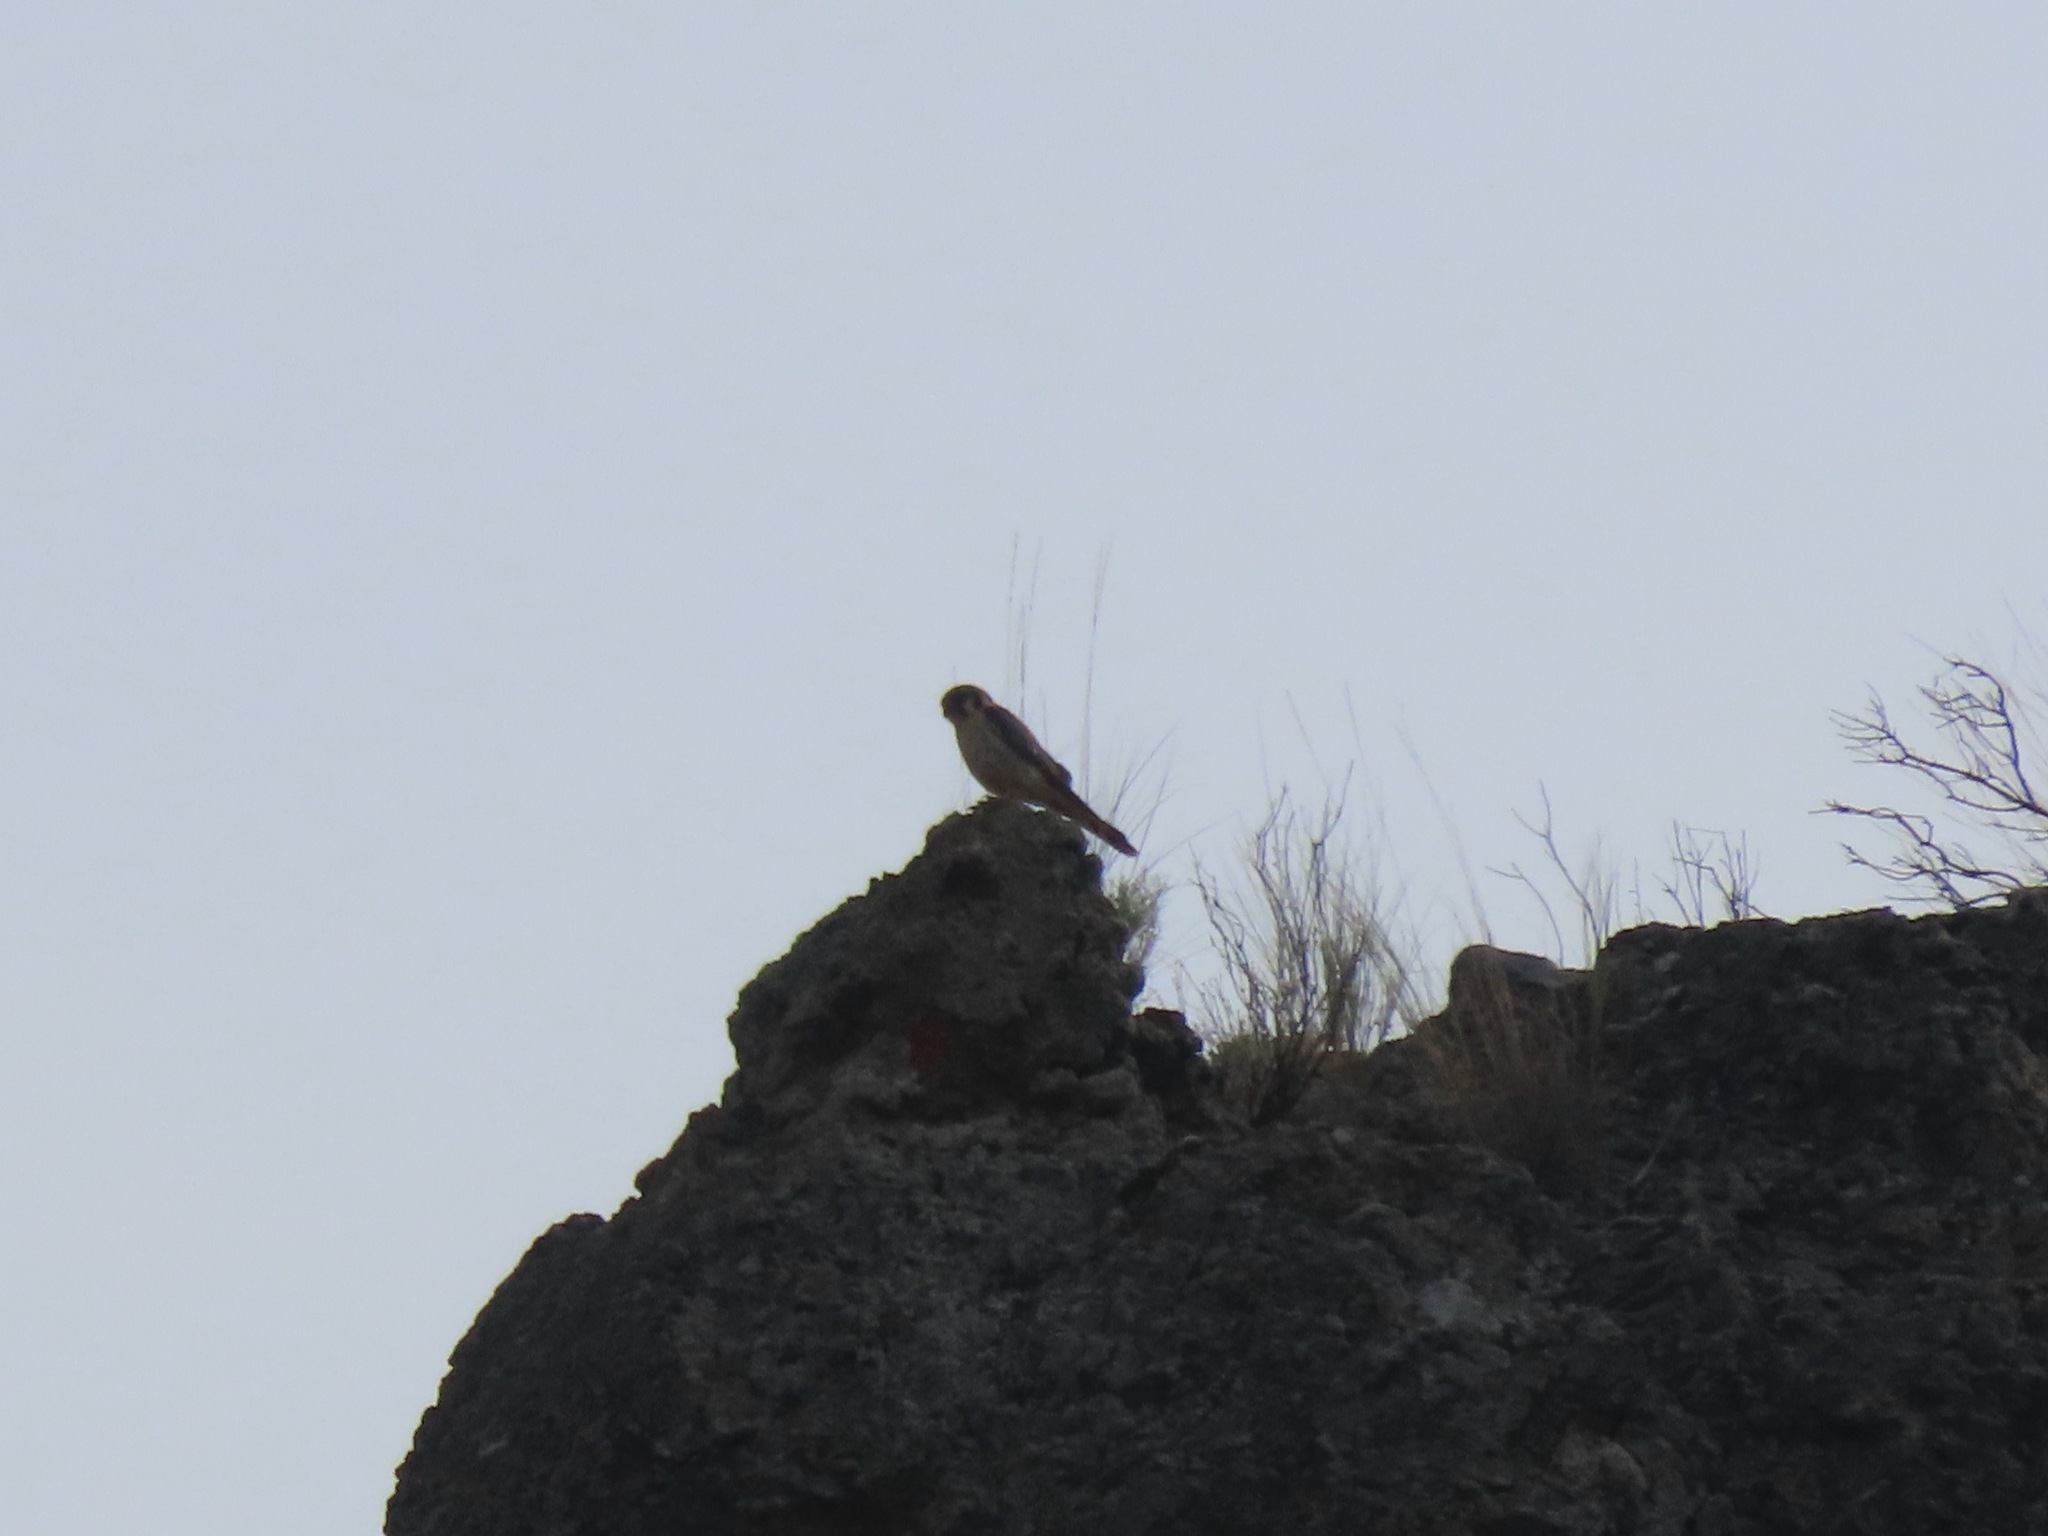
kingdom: Animalia
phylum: Chordata
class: Aves
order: Falconiformes
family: Falconidae
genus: Falco
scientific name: Falco sparverius
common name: American kestrel
